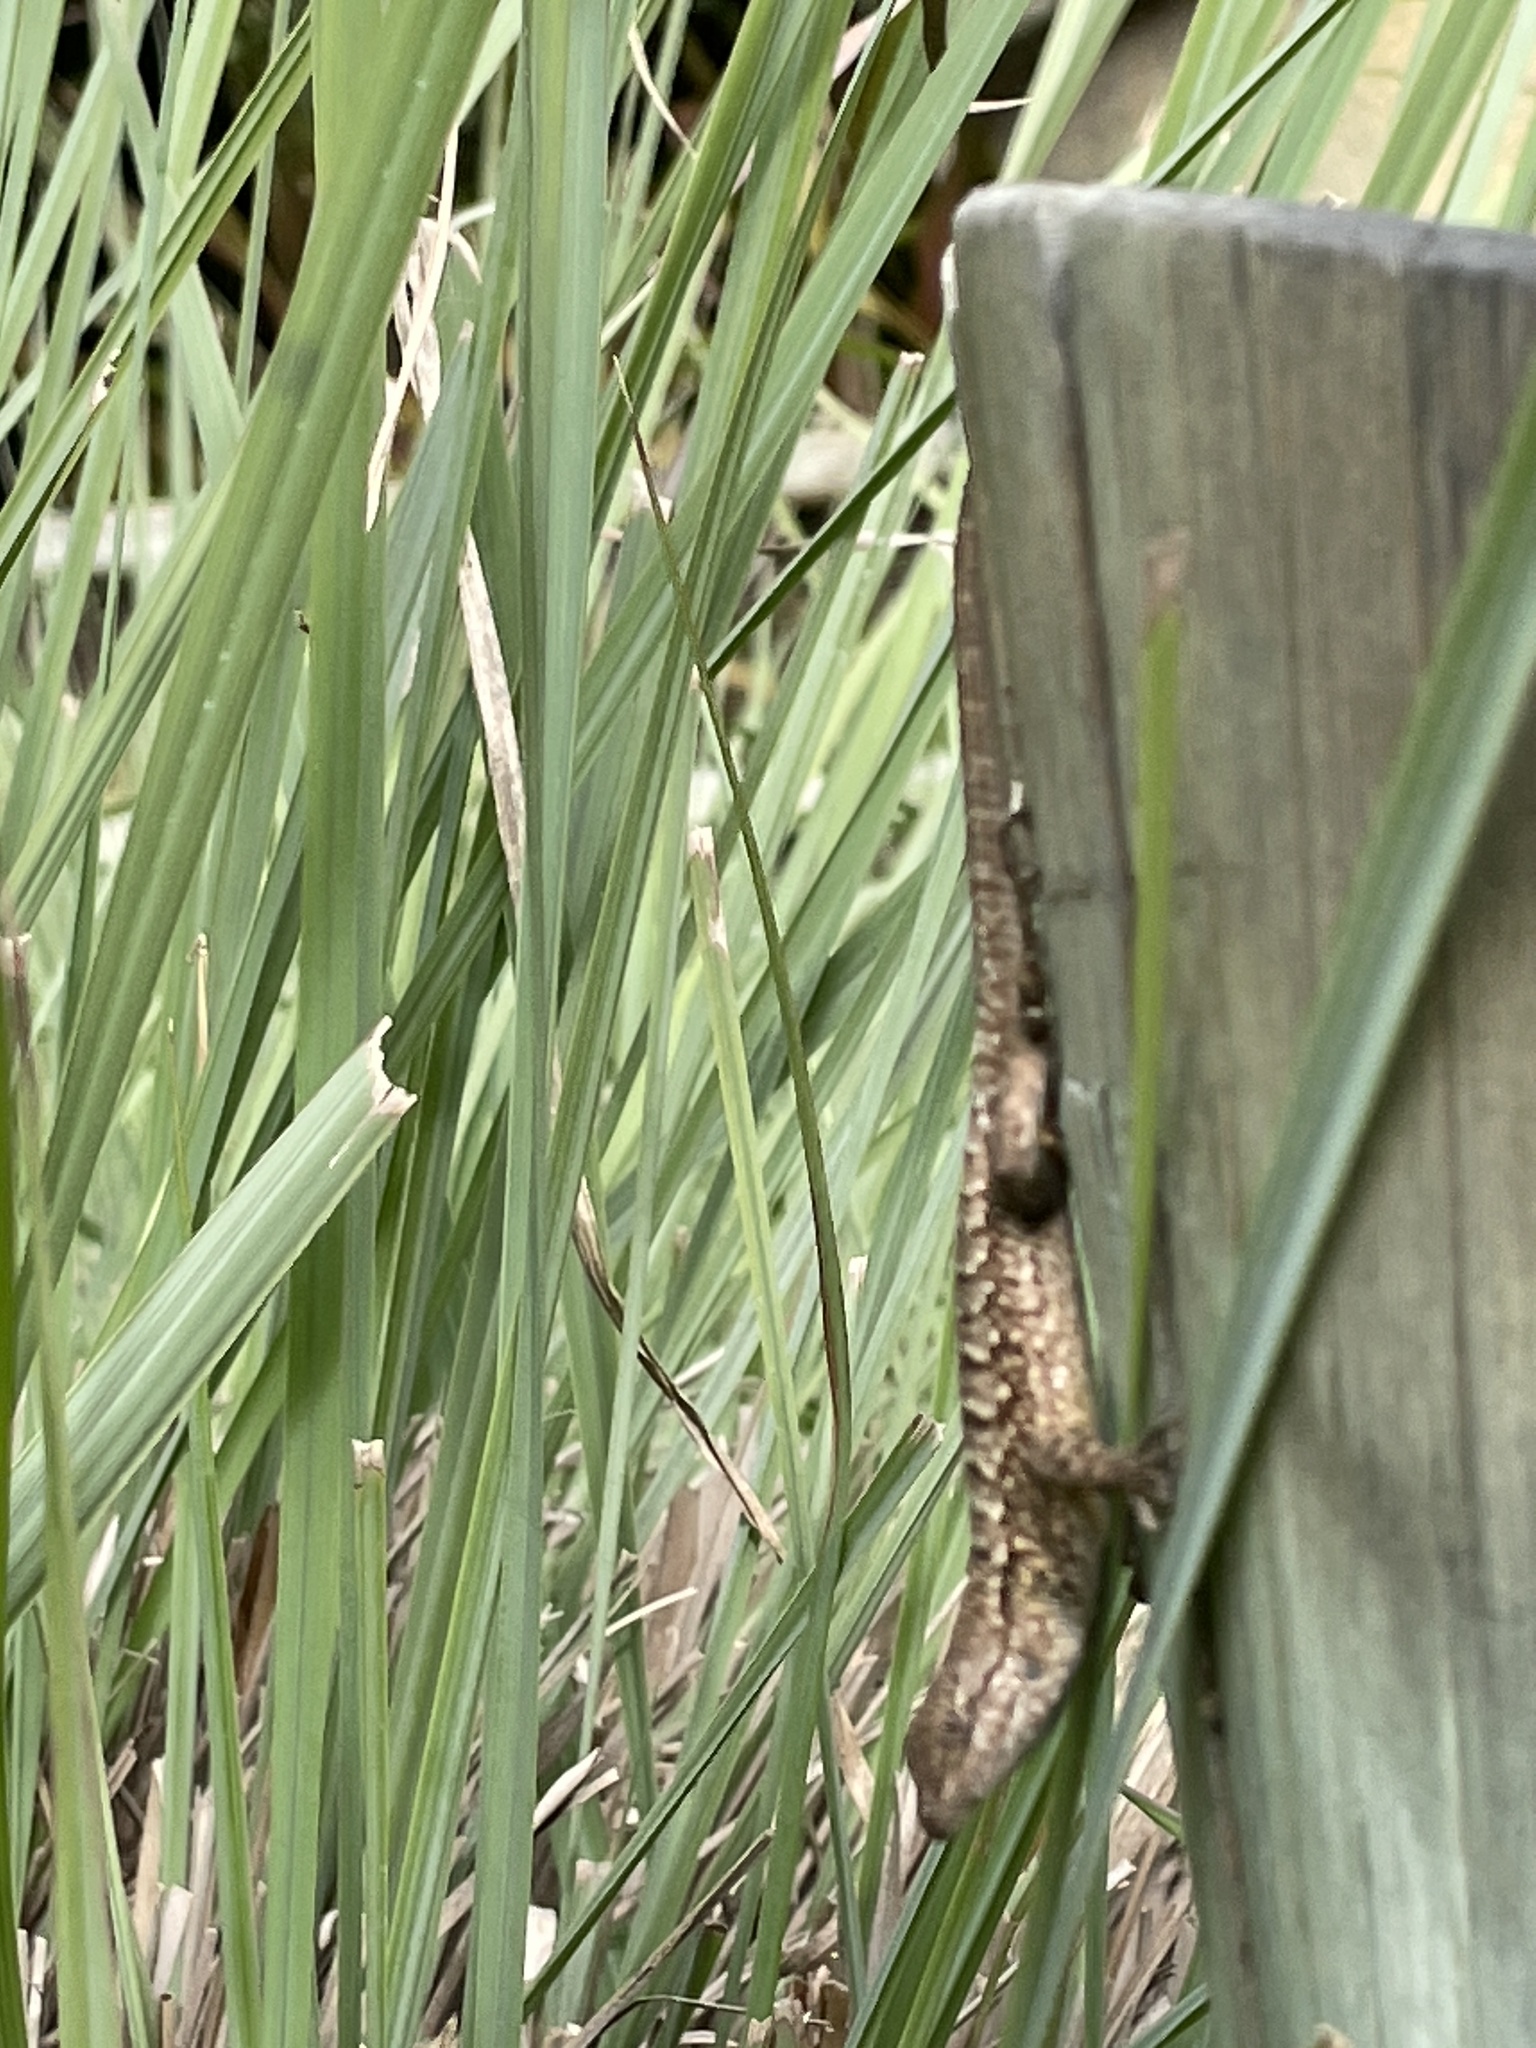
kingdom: Animalia
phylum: Chordata
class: Squamata
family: Phrynosomatidae
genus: Sceloporus
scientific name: Sceloporus occidentalis
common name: Western fence lizard
